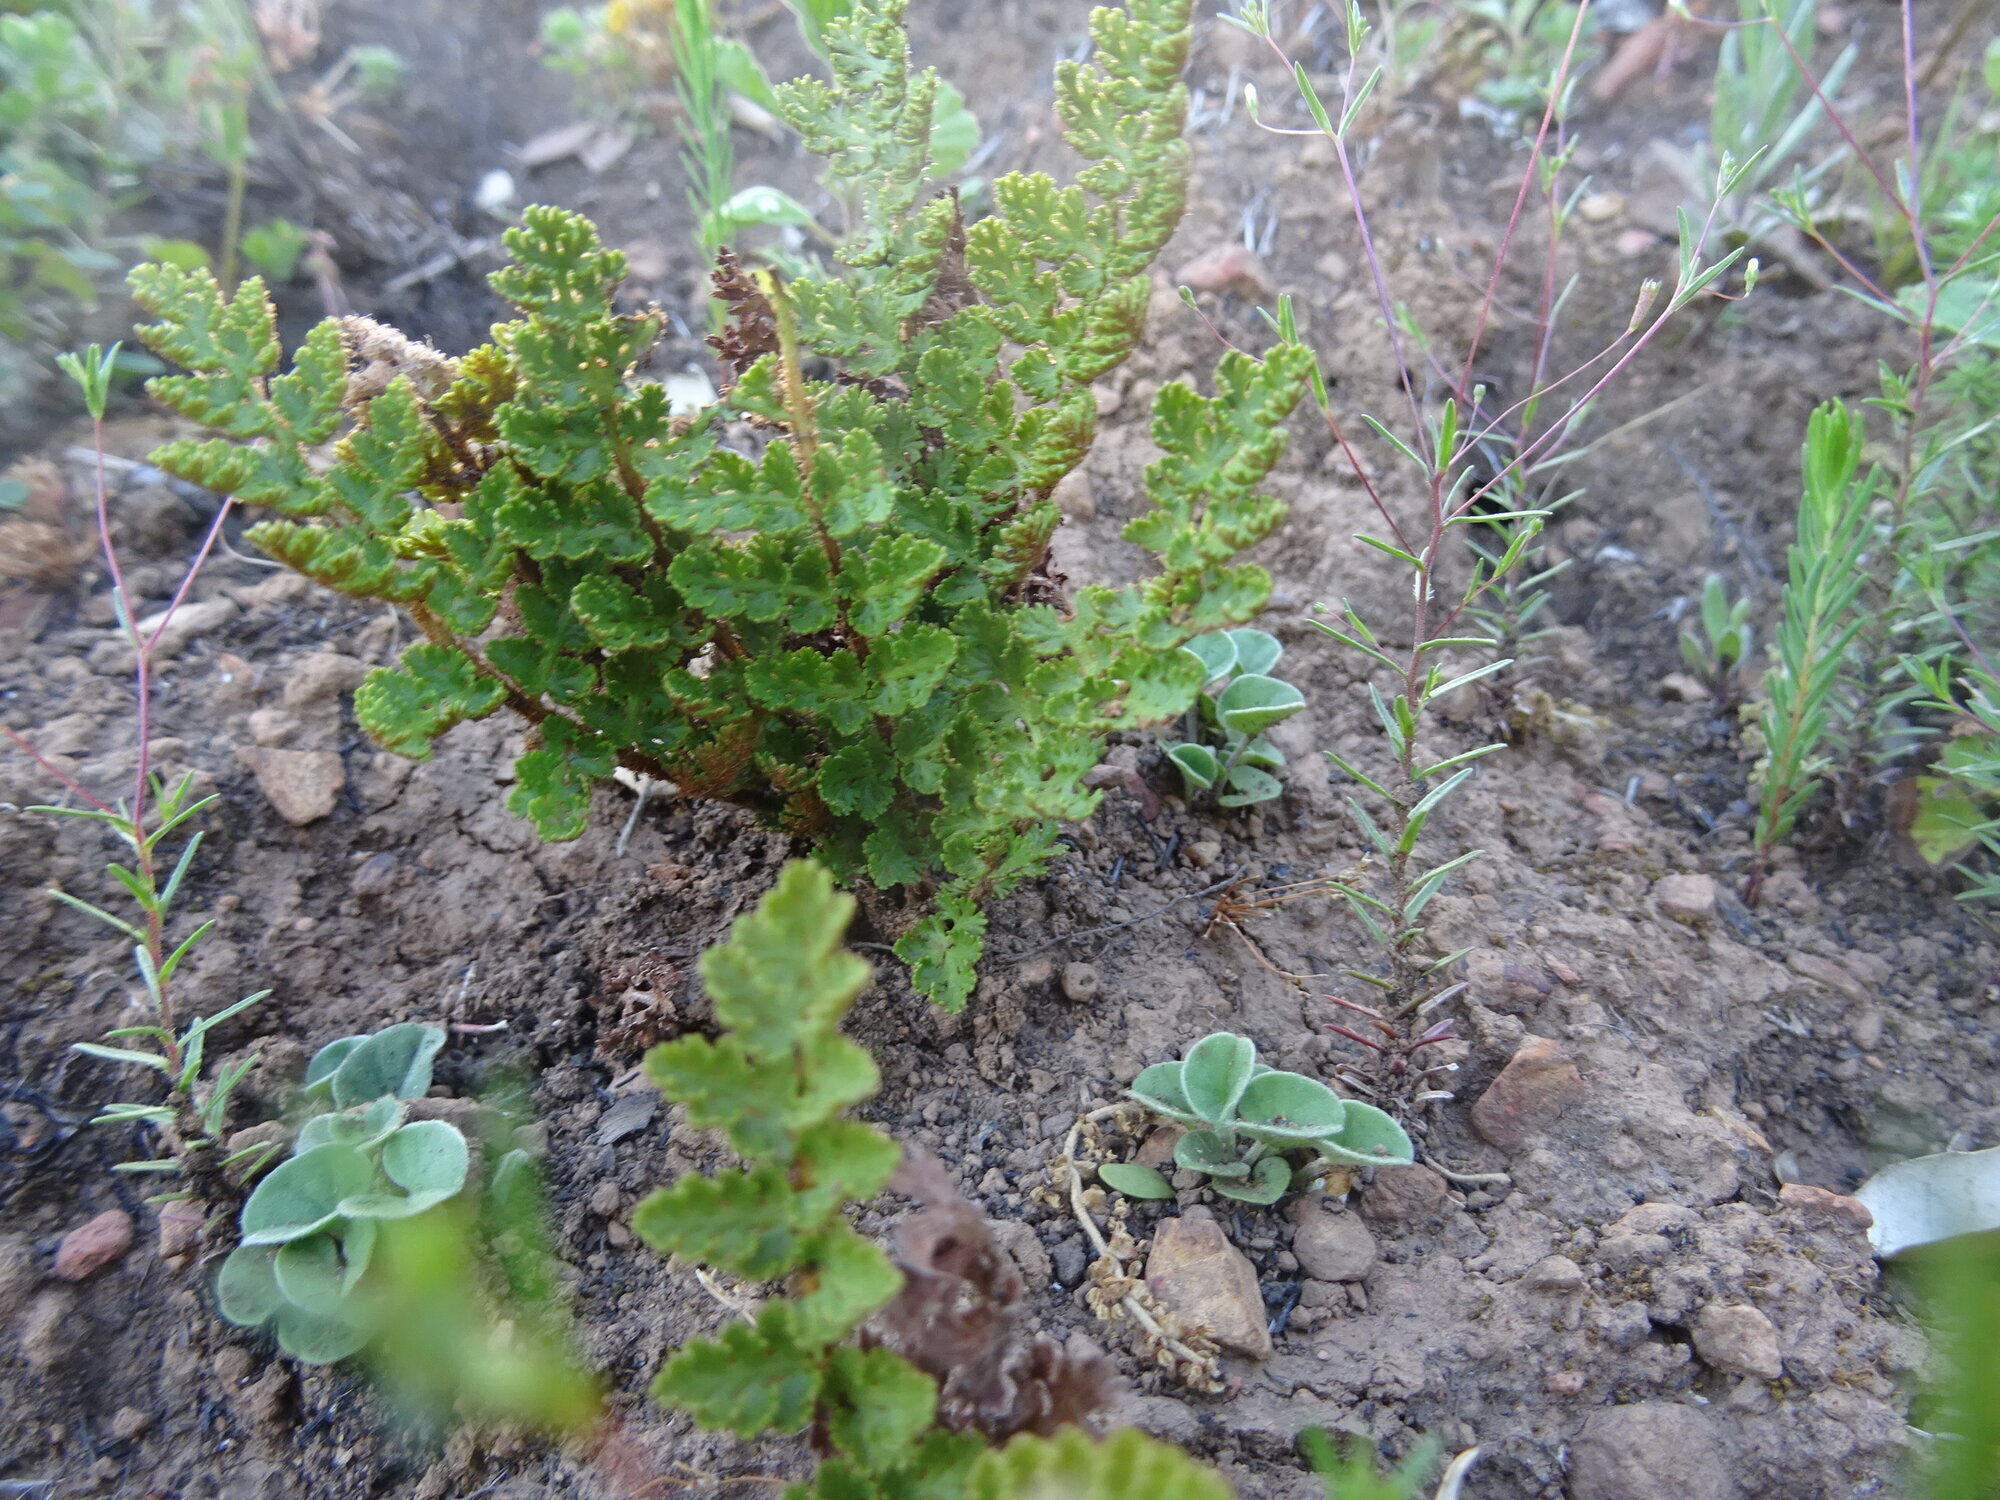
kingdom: Plantae
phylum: Tracheophyta
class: Polypodiopsida
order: Schizaeales
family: Anemiaceae
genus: Anemia
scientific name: Anemia caffrorum
